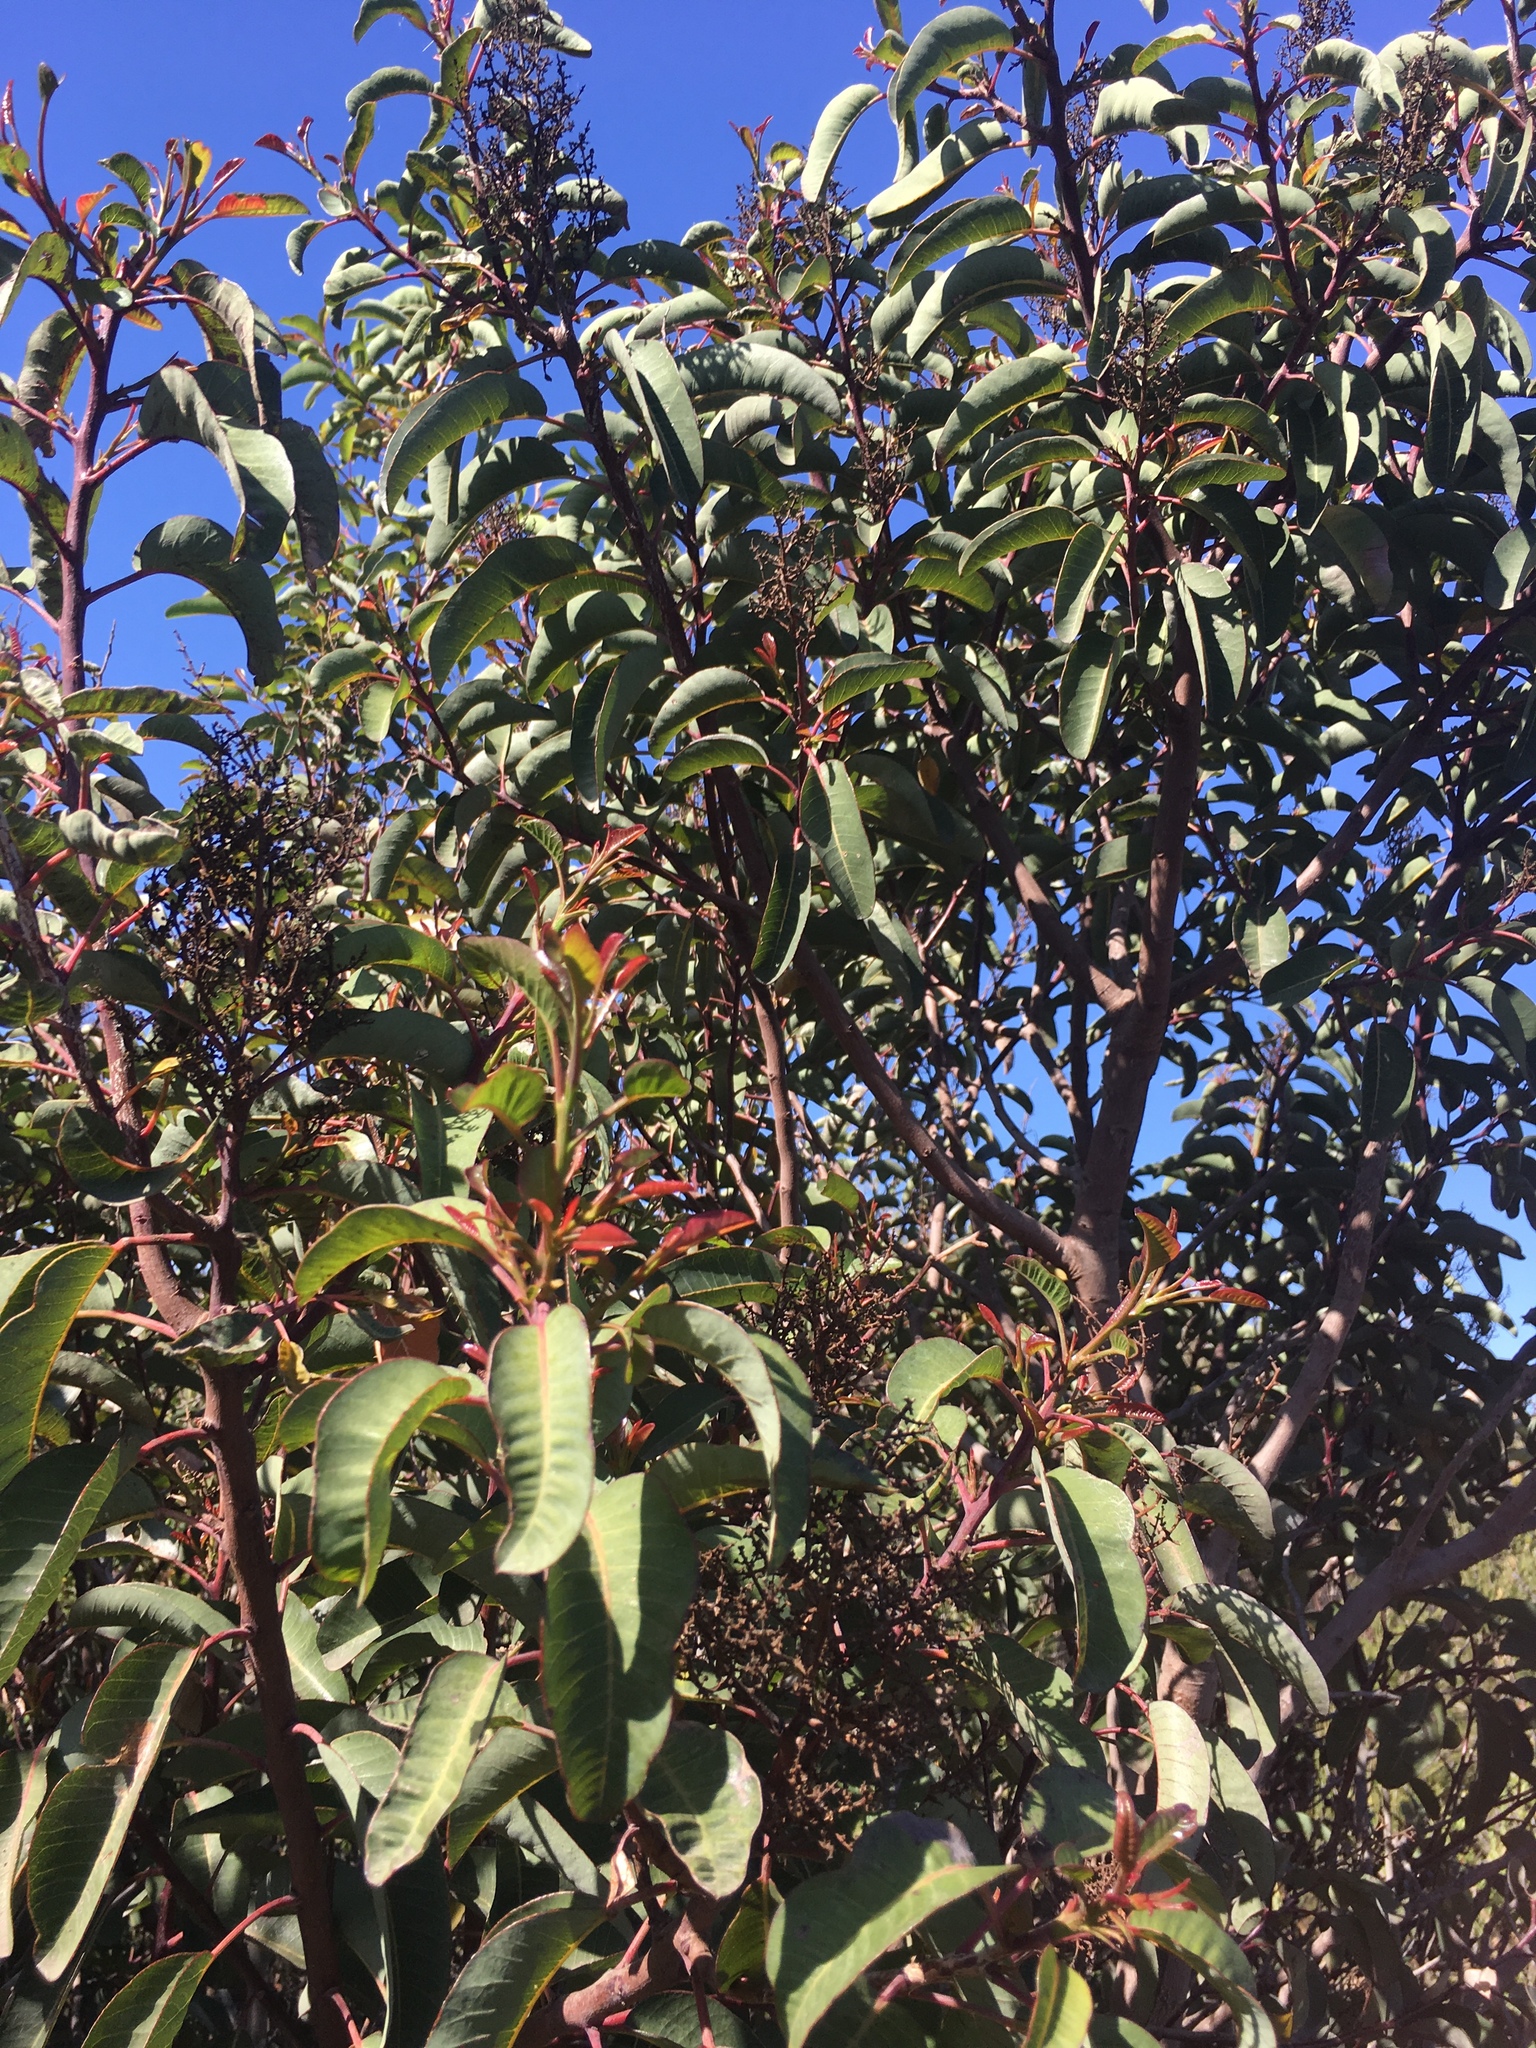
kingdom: Plantae
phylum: Tracheophyta
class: Magnoliopsida
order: Sapindales
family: Anacardiaceae
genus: Malosma
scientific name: Malosma laurina
